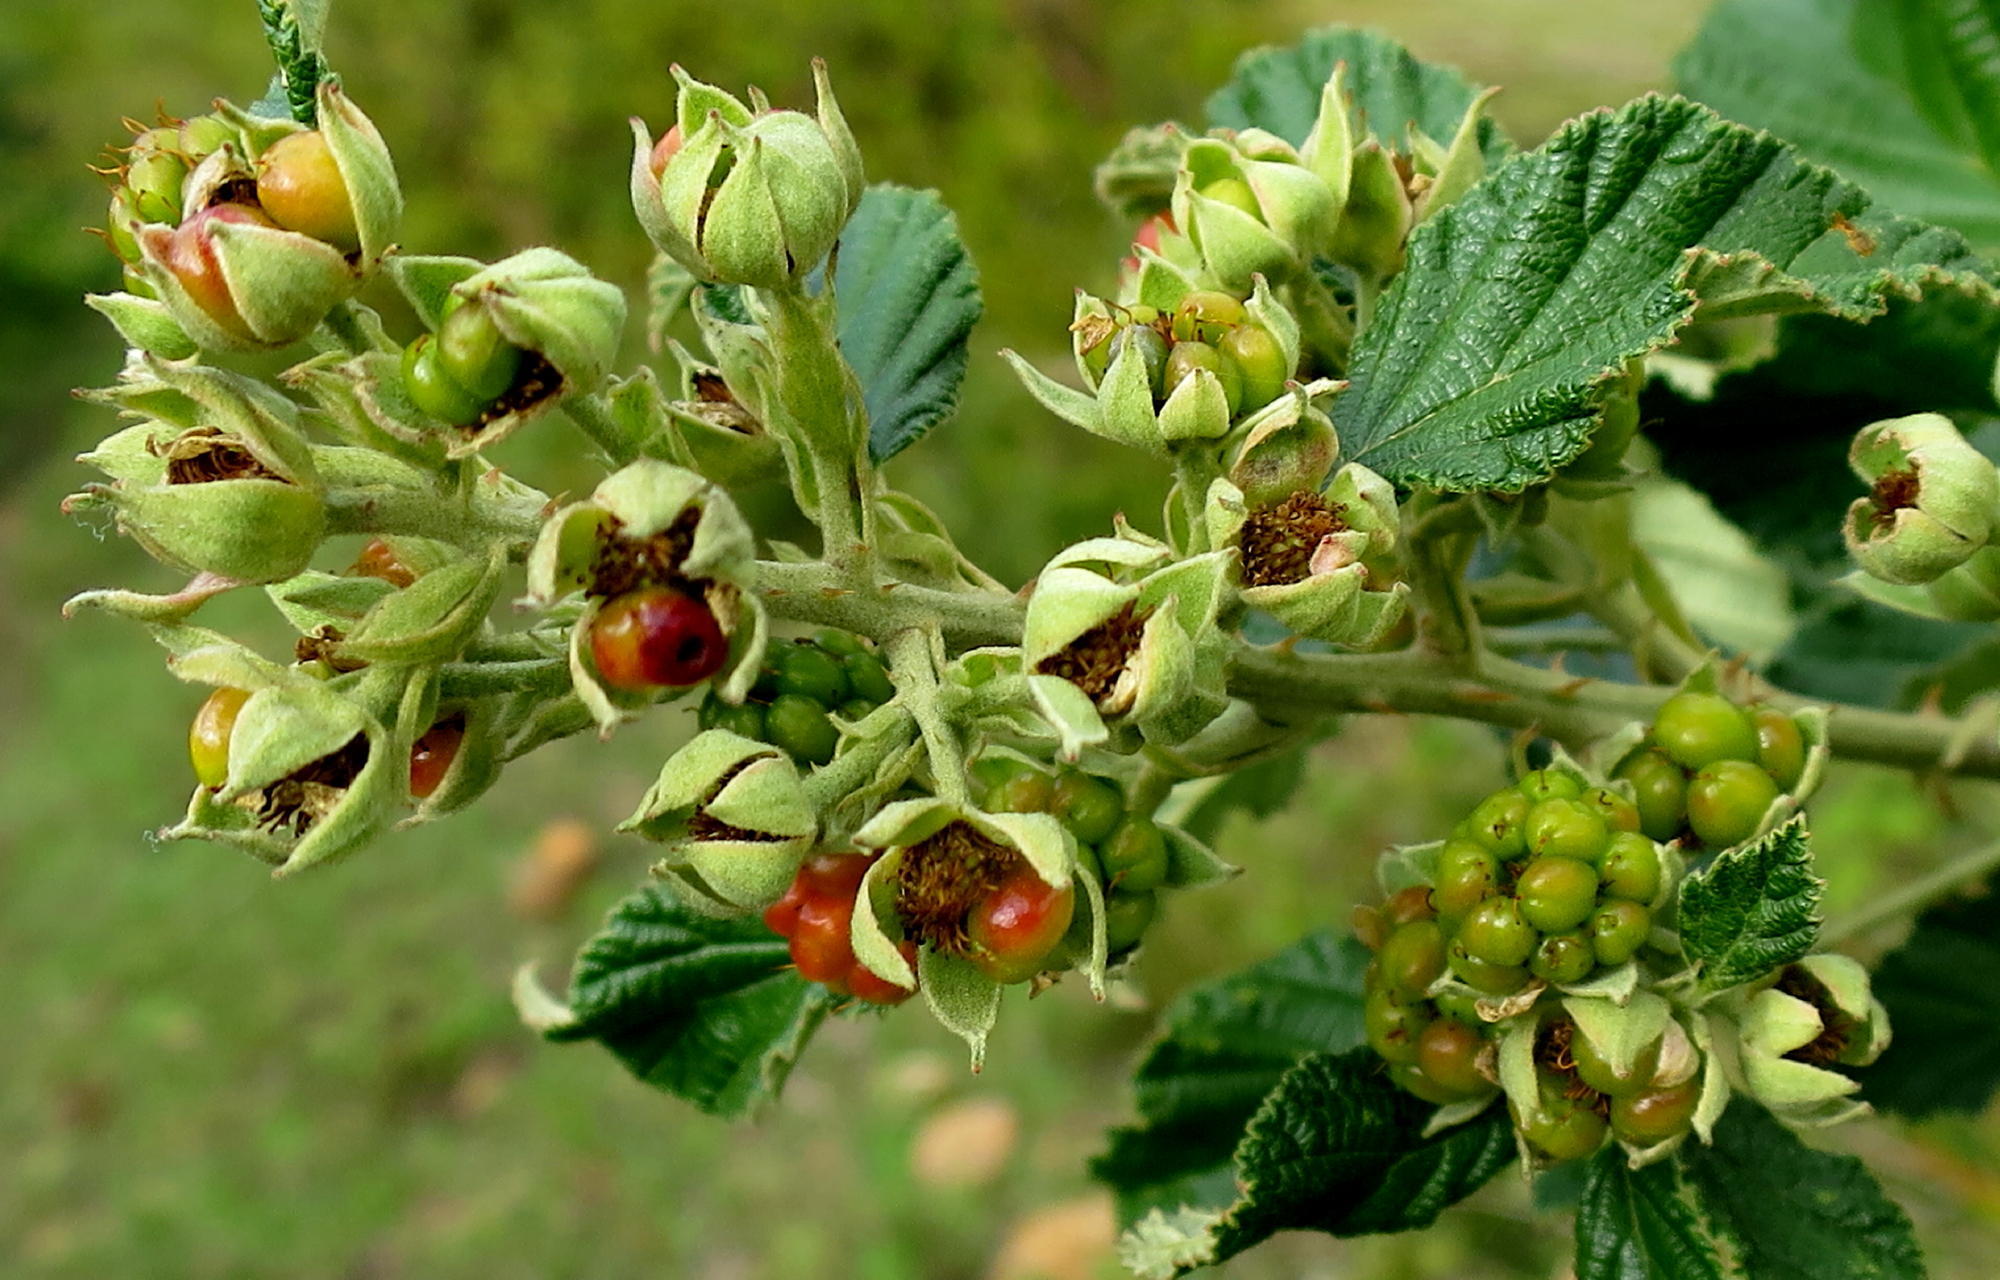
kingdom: Plantae
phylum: Tracheophyta
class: Magnoliopsida
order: Rosales
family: Rosaceae
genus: Rubus
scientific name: Rubus rigidus
